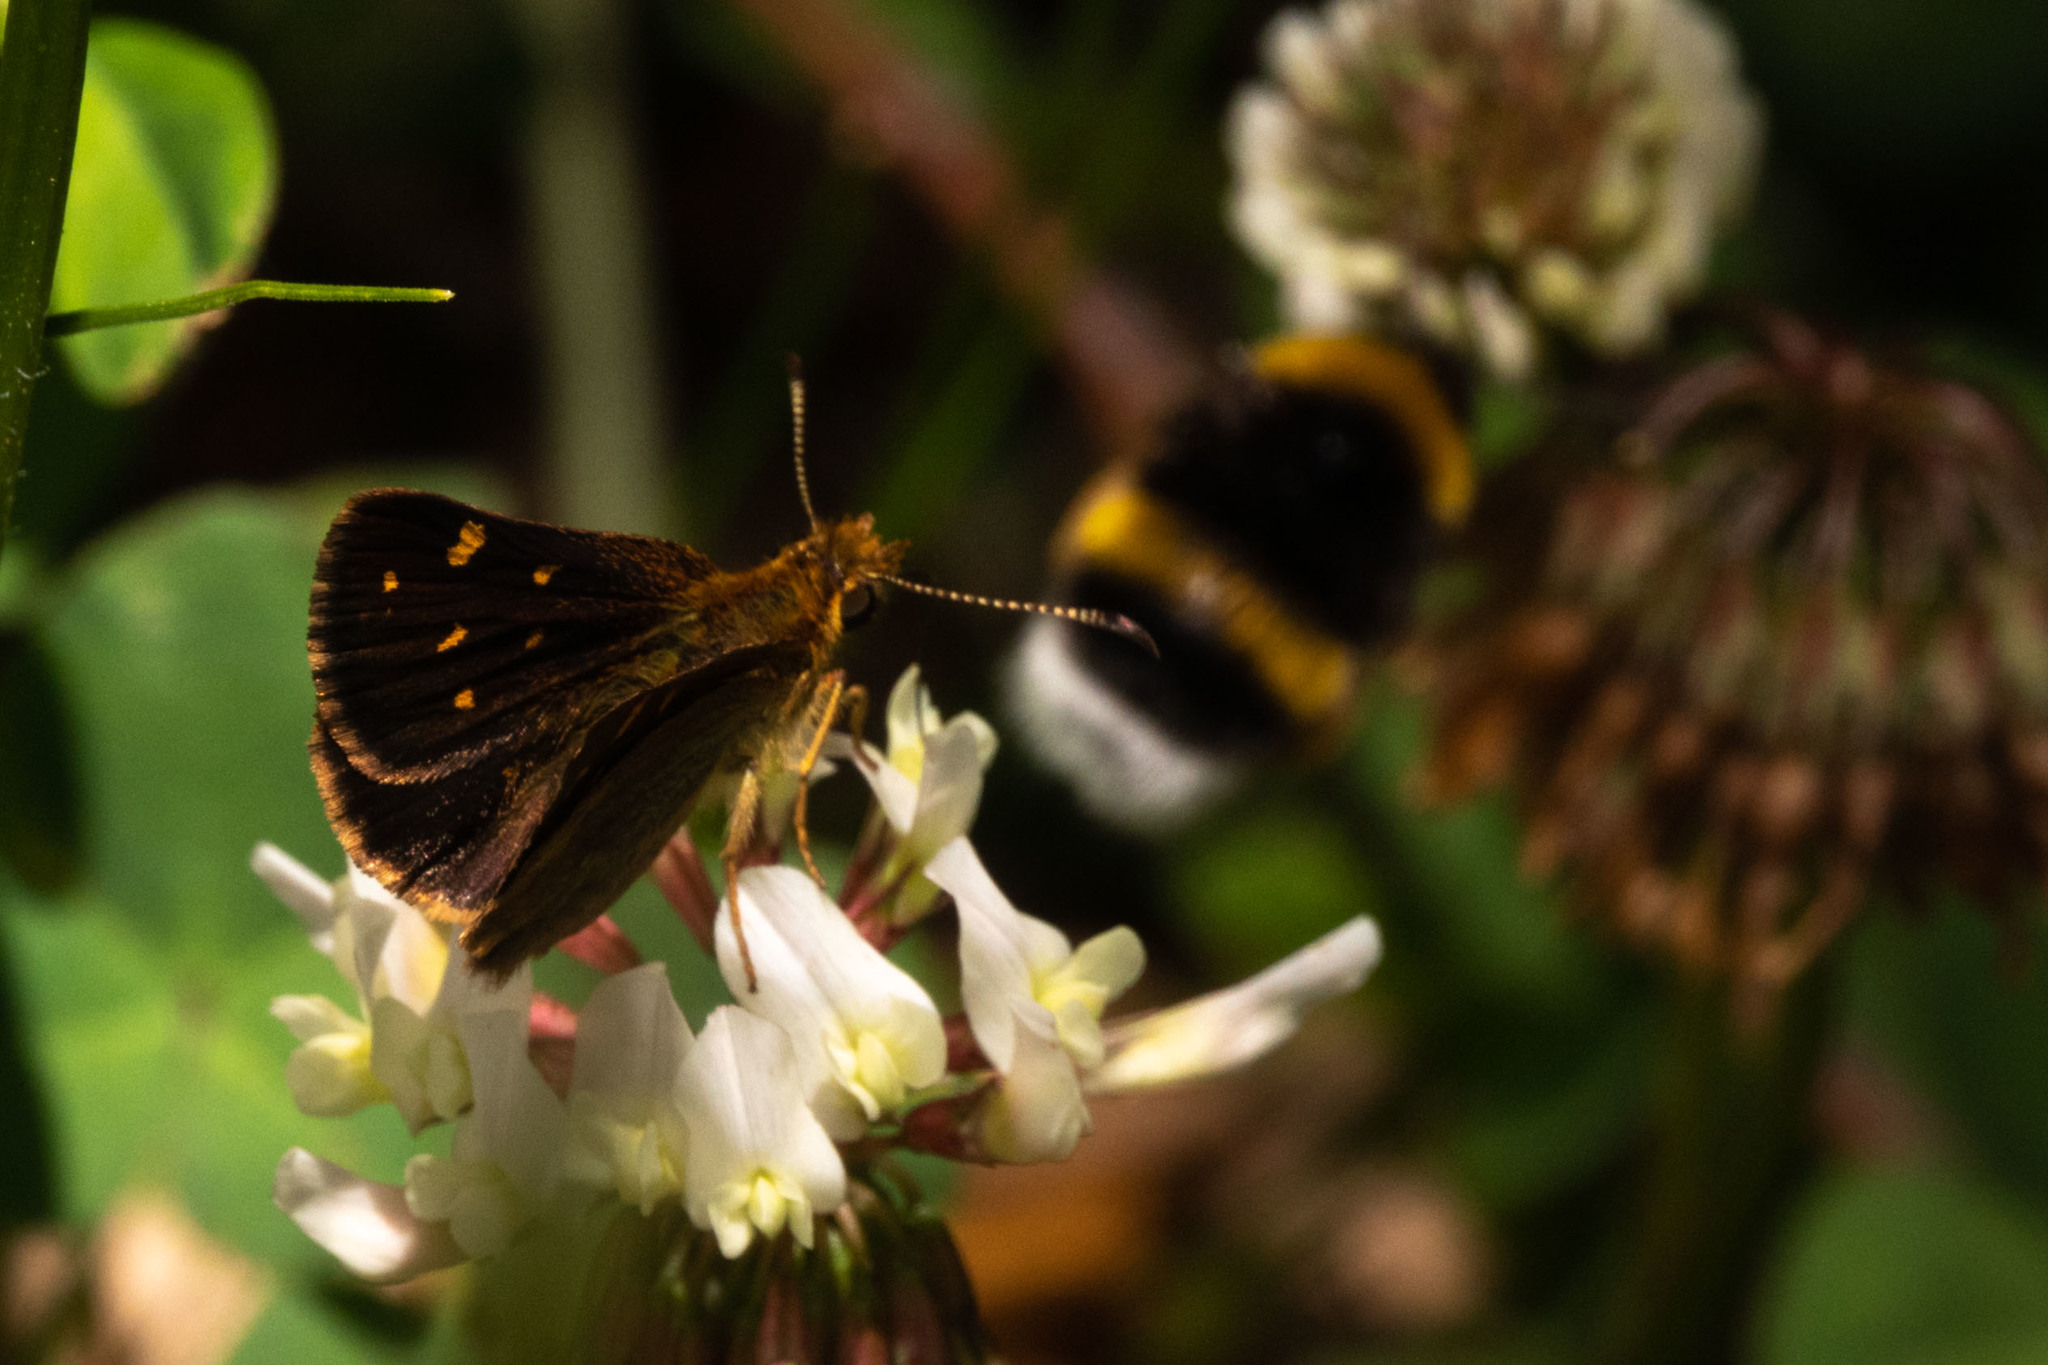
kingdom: Animalia
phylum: Arthropoda
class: Insecta
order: Lepidoptera
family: Hesperiidae
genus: Butleria
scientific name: Butleria bissexguttatus
